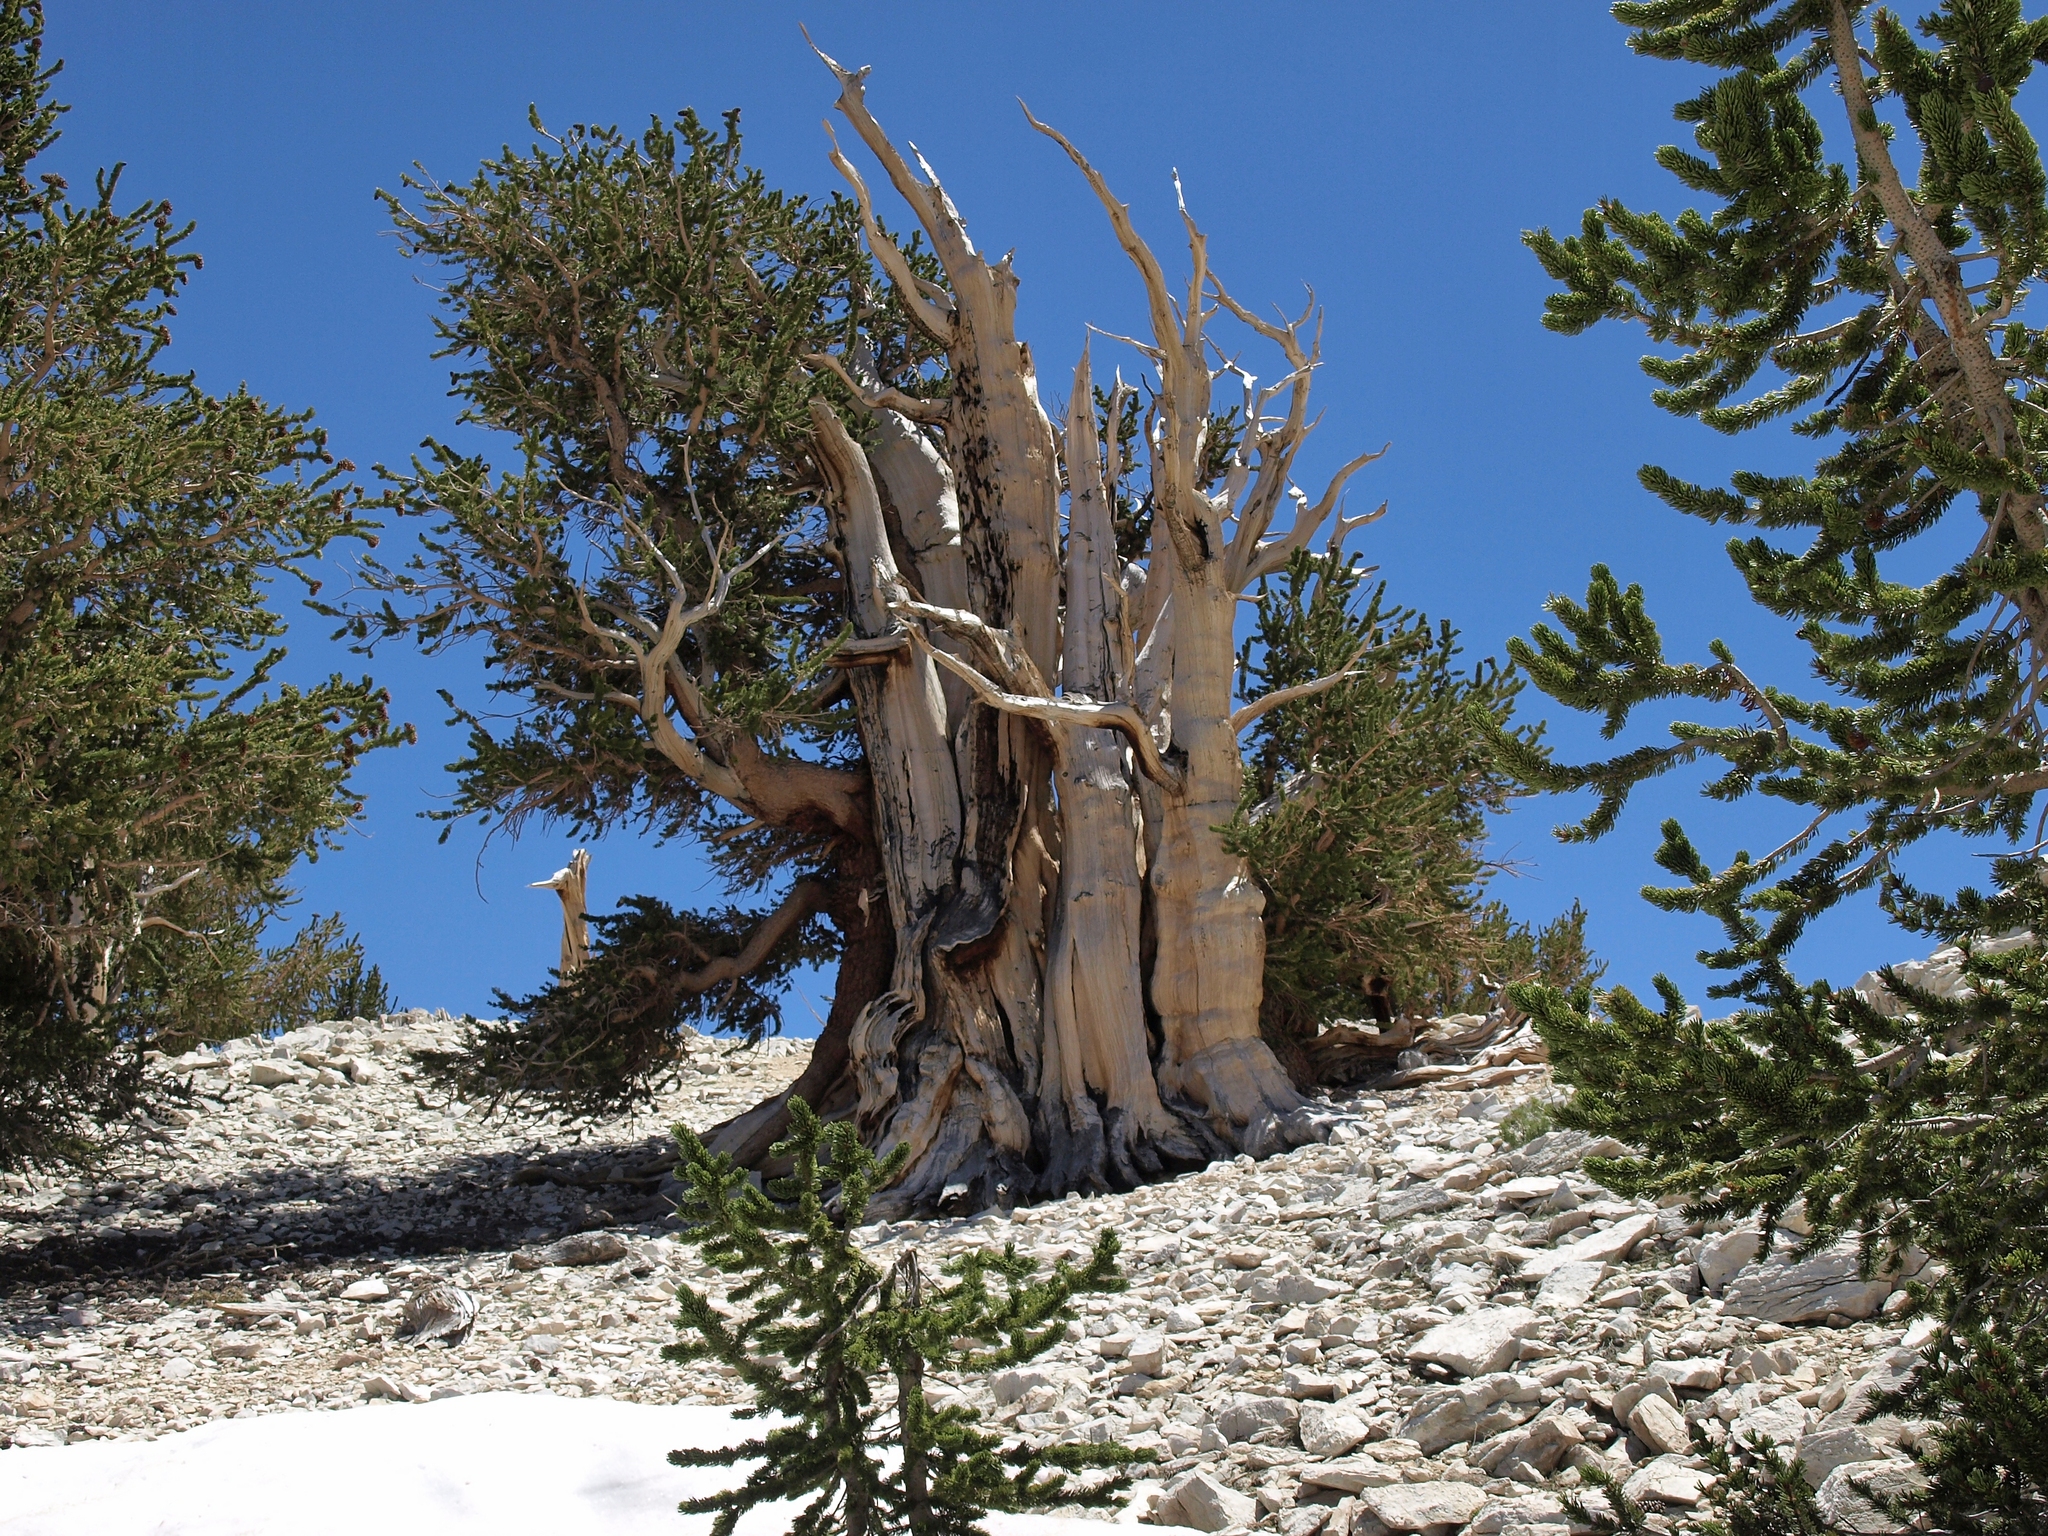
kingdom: Plantae
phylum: Tracheophyta
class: Pinopsida
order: Pinales
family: Pinaceae
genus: Pinus
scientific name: Pinus longaeva
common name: Intermountain bristlecone pine
